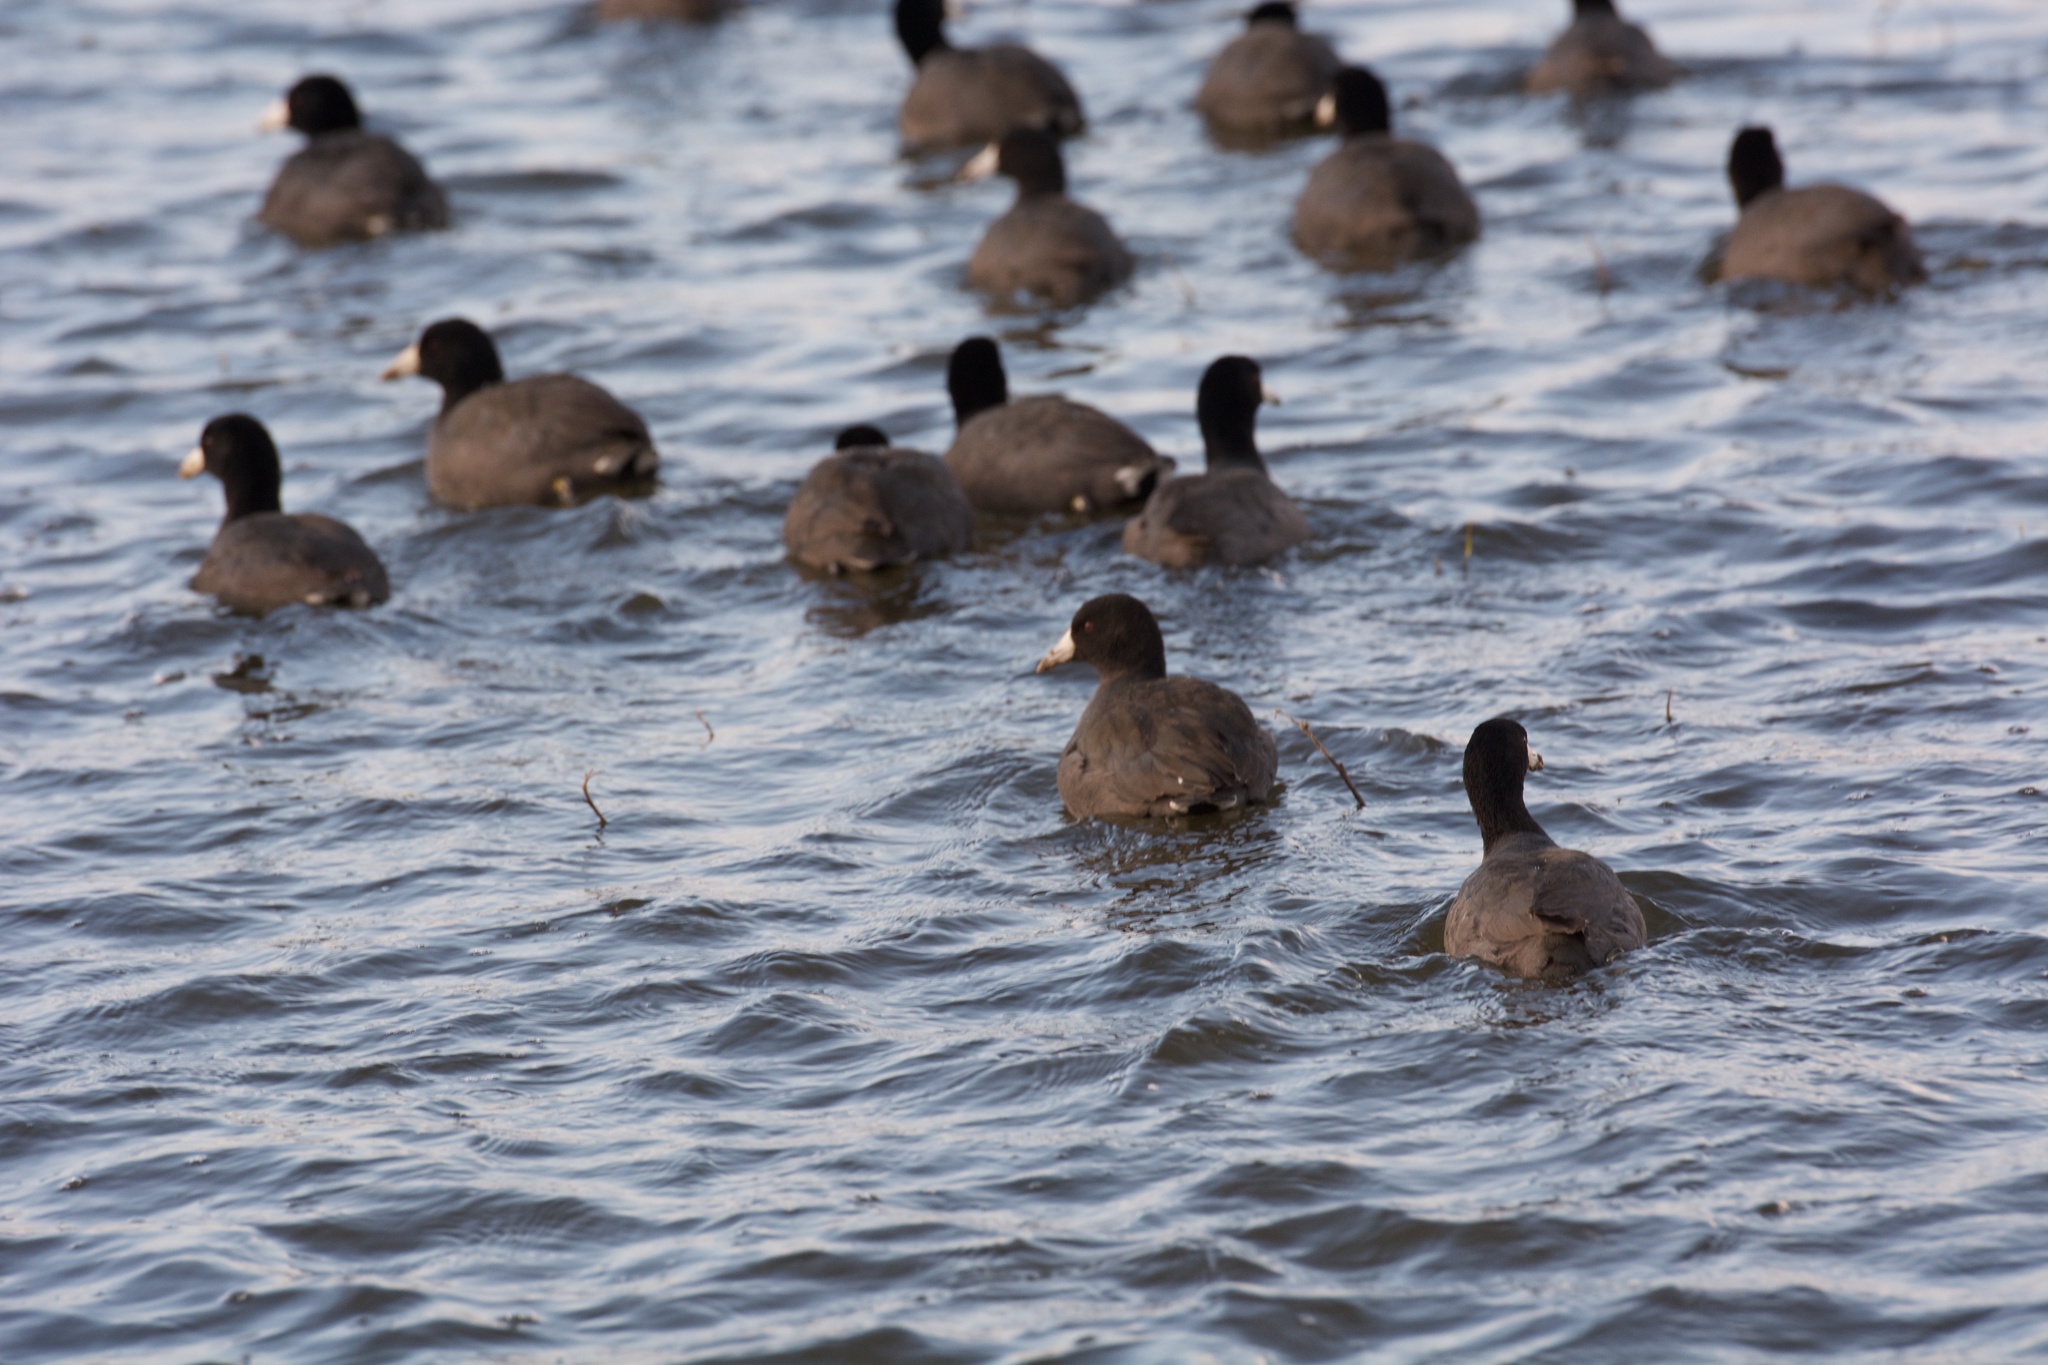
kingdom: Animalia
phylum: Chordata
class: Aves
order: Gruiformes
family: Rallidae
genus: Fulica
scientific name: Fulica americana
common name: American coot
